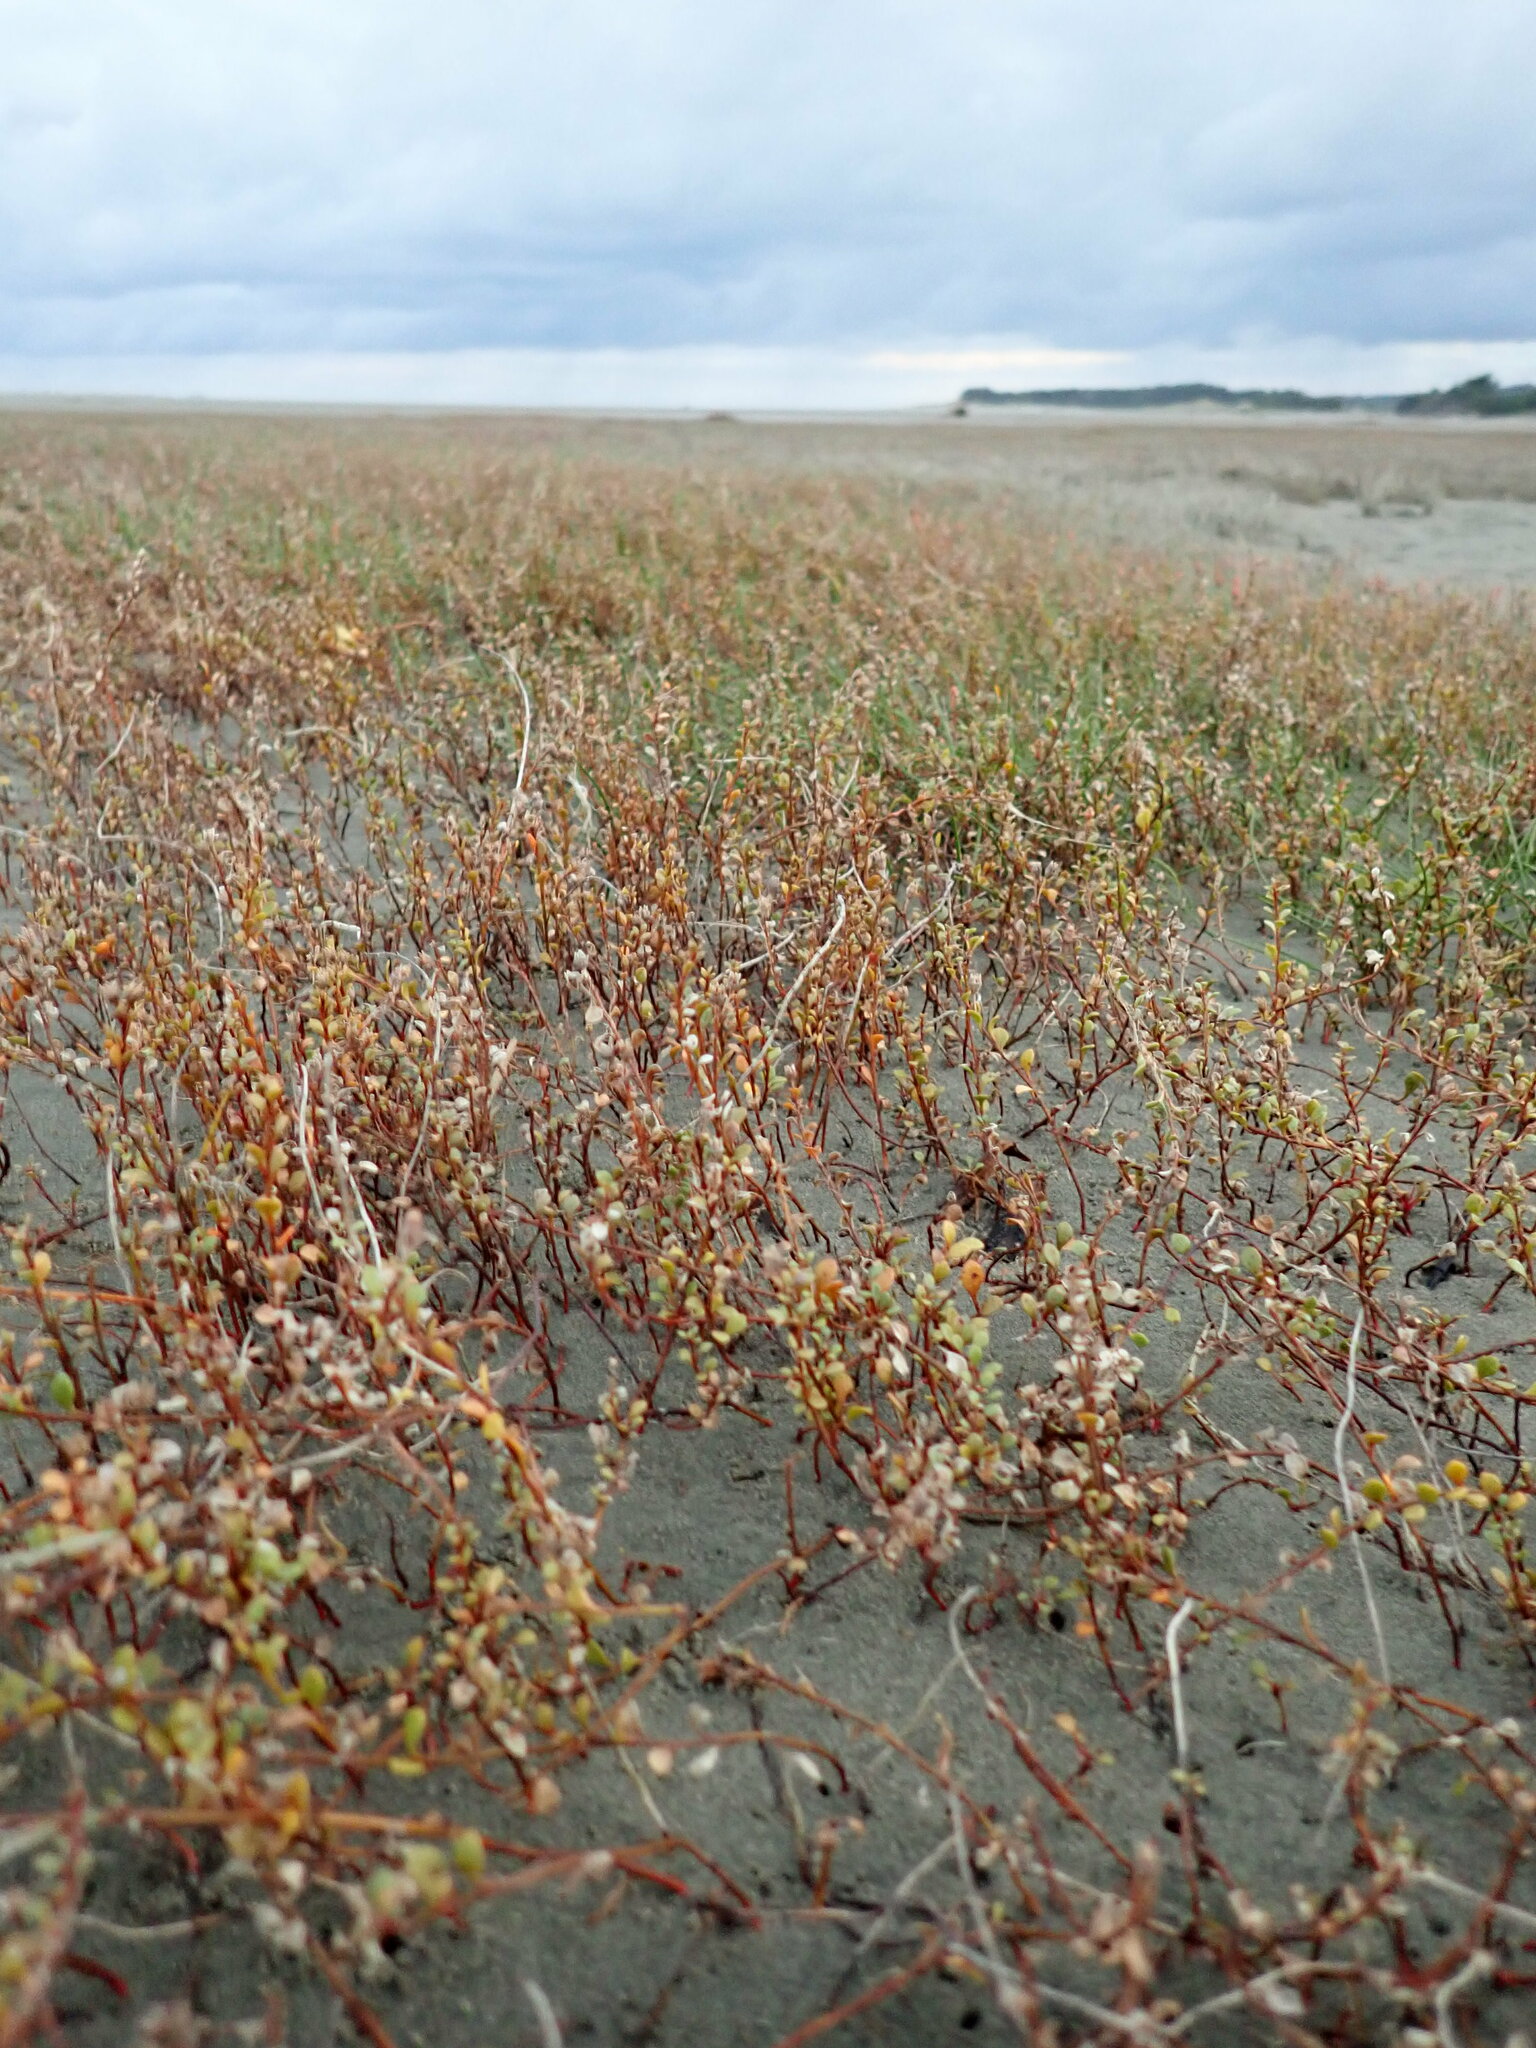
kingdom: Plantae
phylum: Tracheophyta
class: Magnoliopsida
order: Ericales
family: Primulaceae
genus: Samolus
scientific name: Samolus repens
